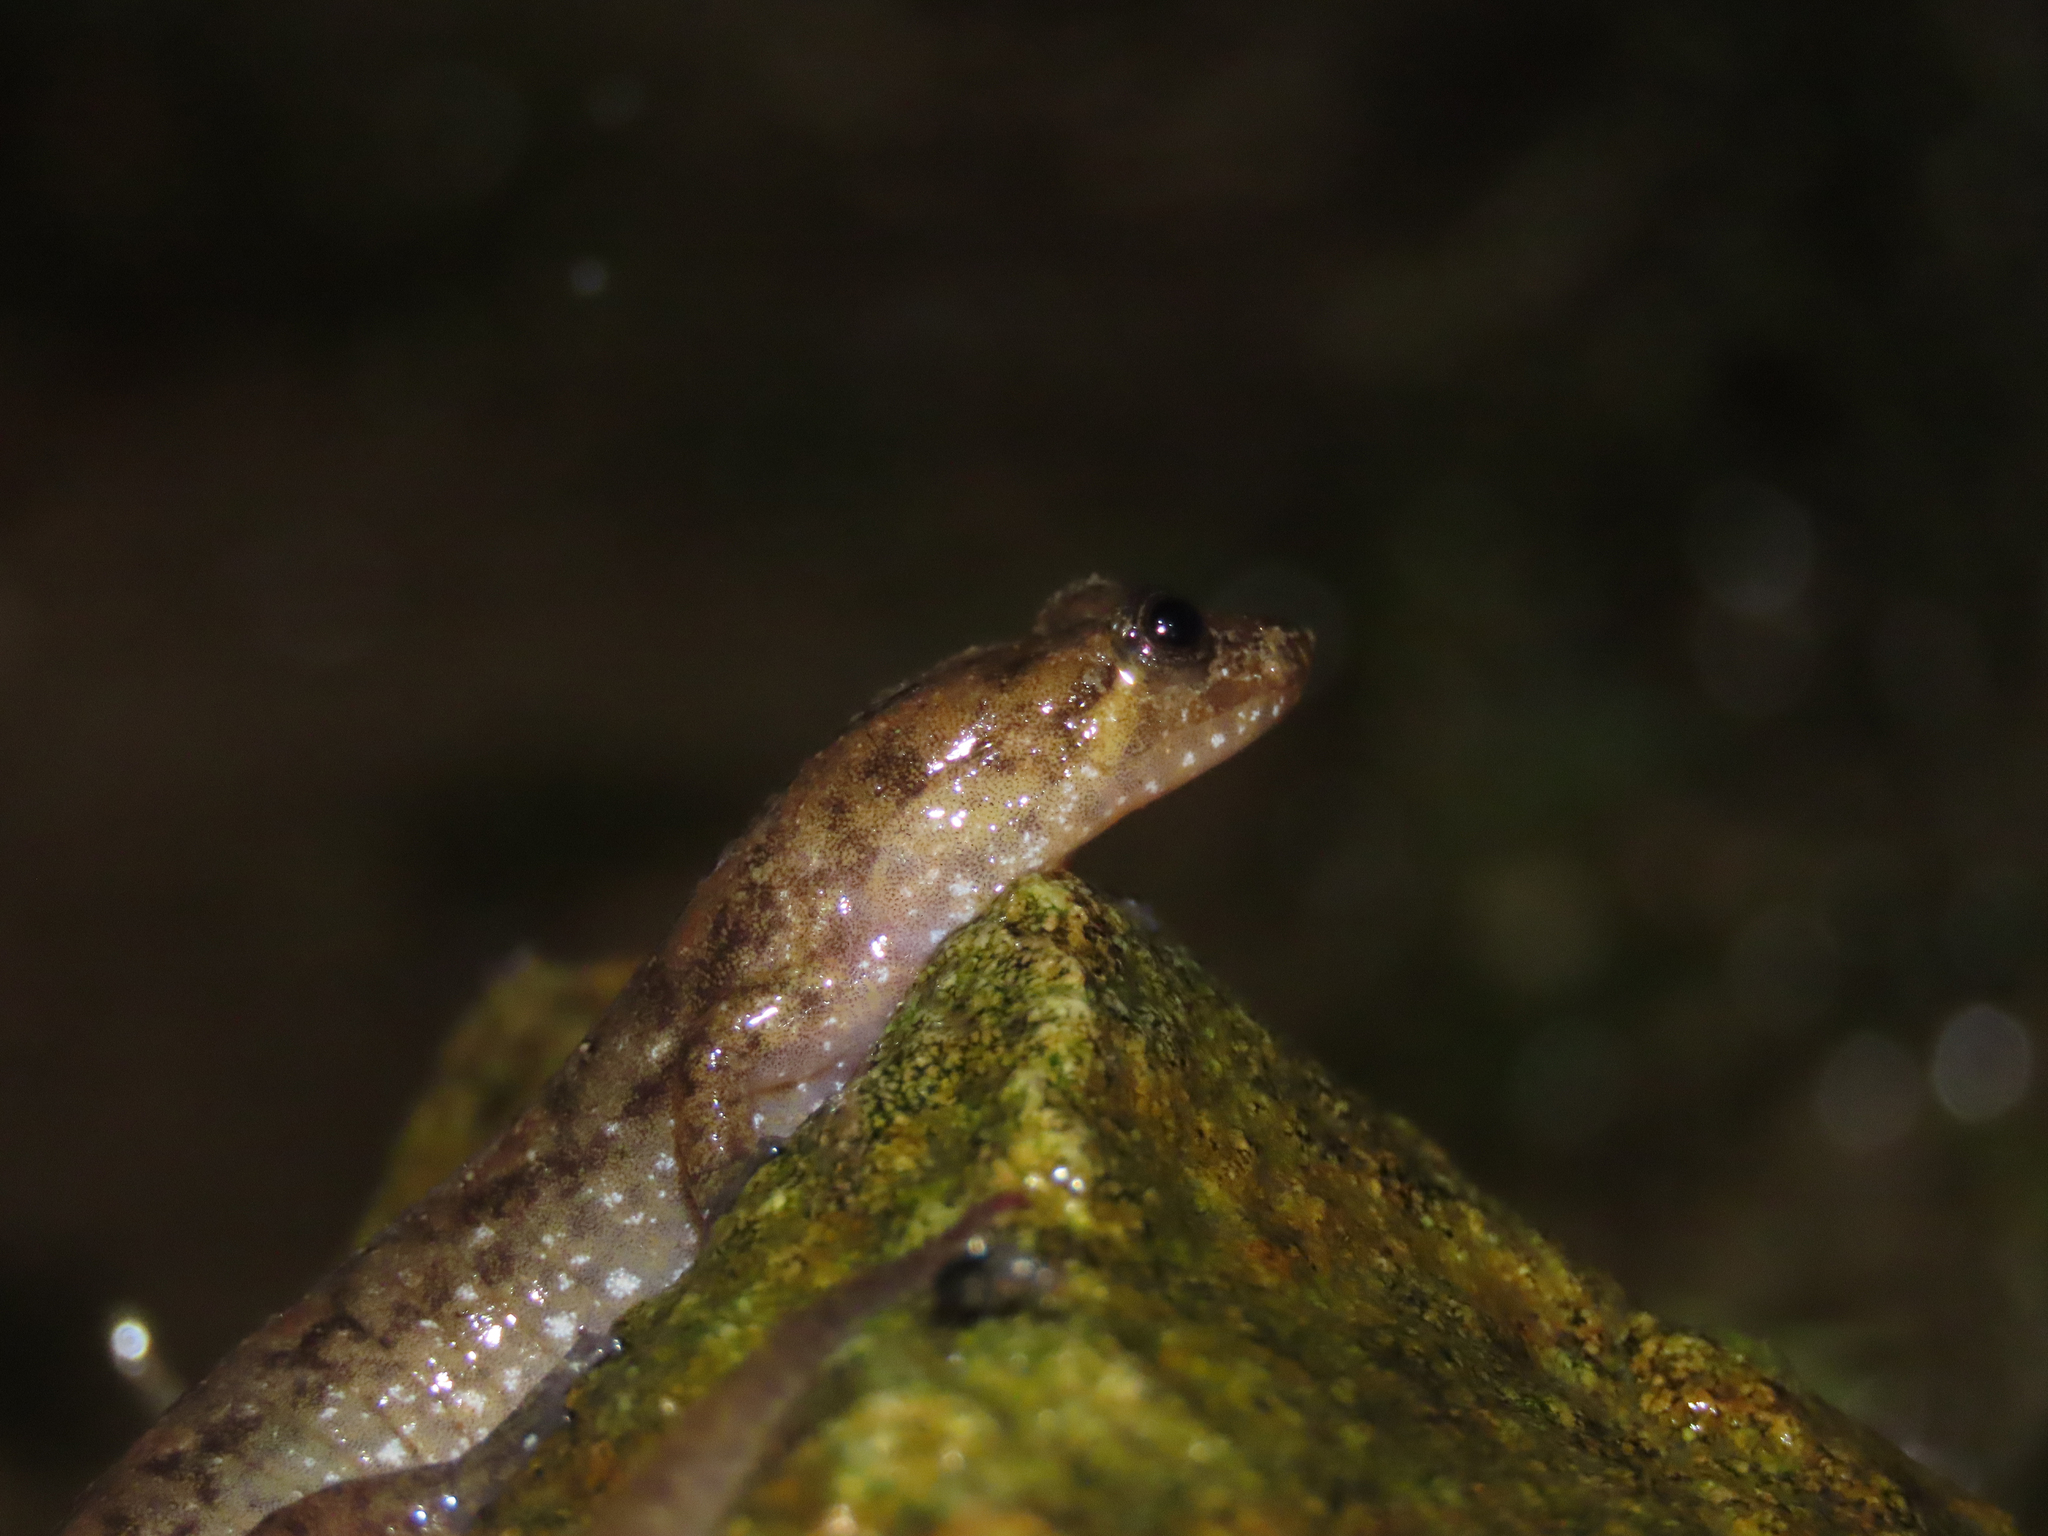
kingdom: Animalia
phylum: Chordata
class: Amphibia
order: Caudata
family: Plethodontidae
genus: Desmognathus
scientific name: Desmognathus monticola
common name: Seal salamander
